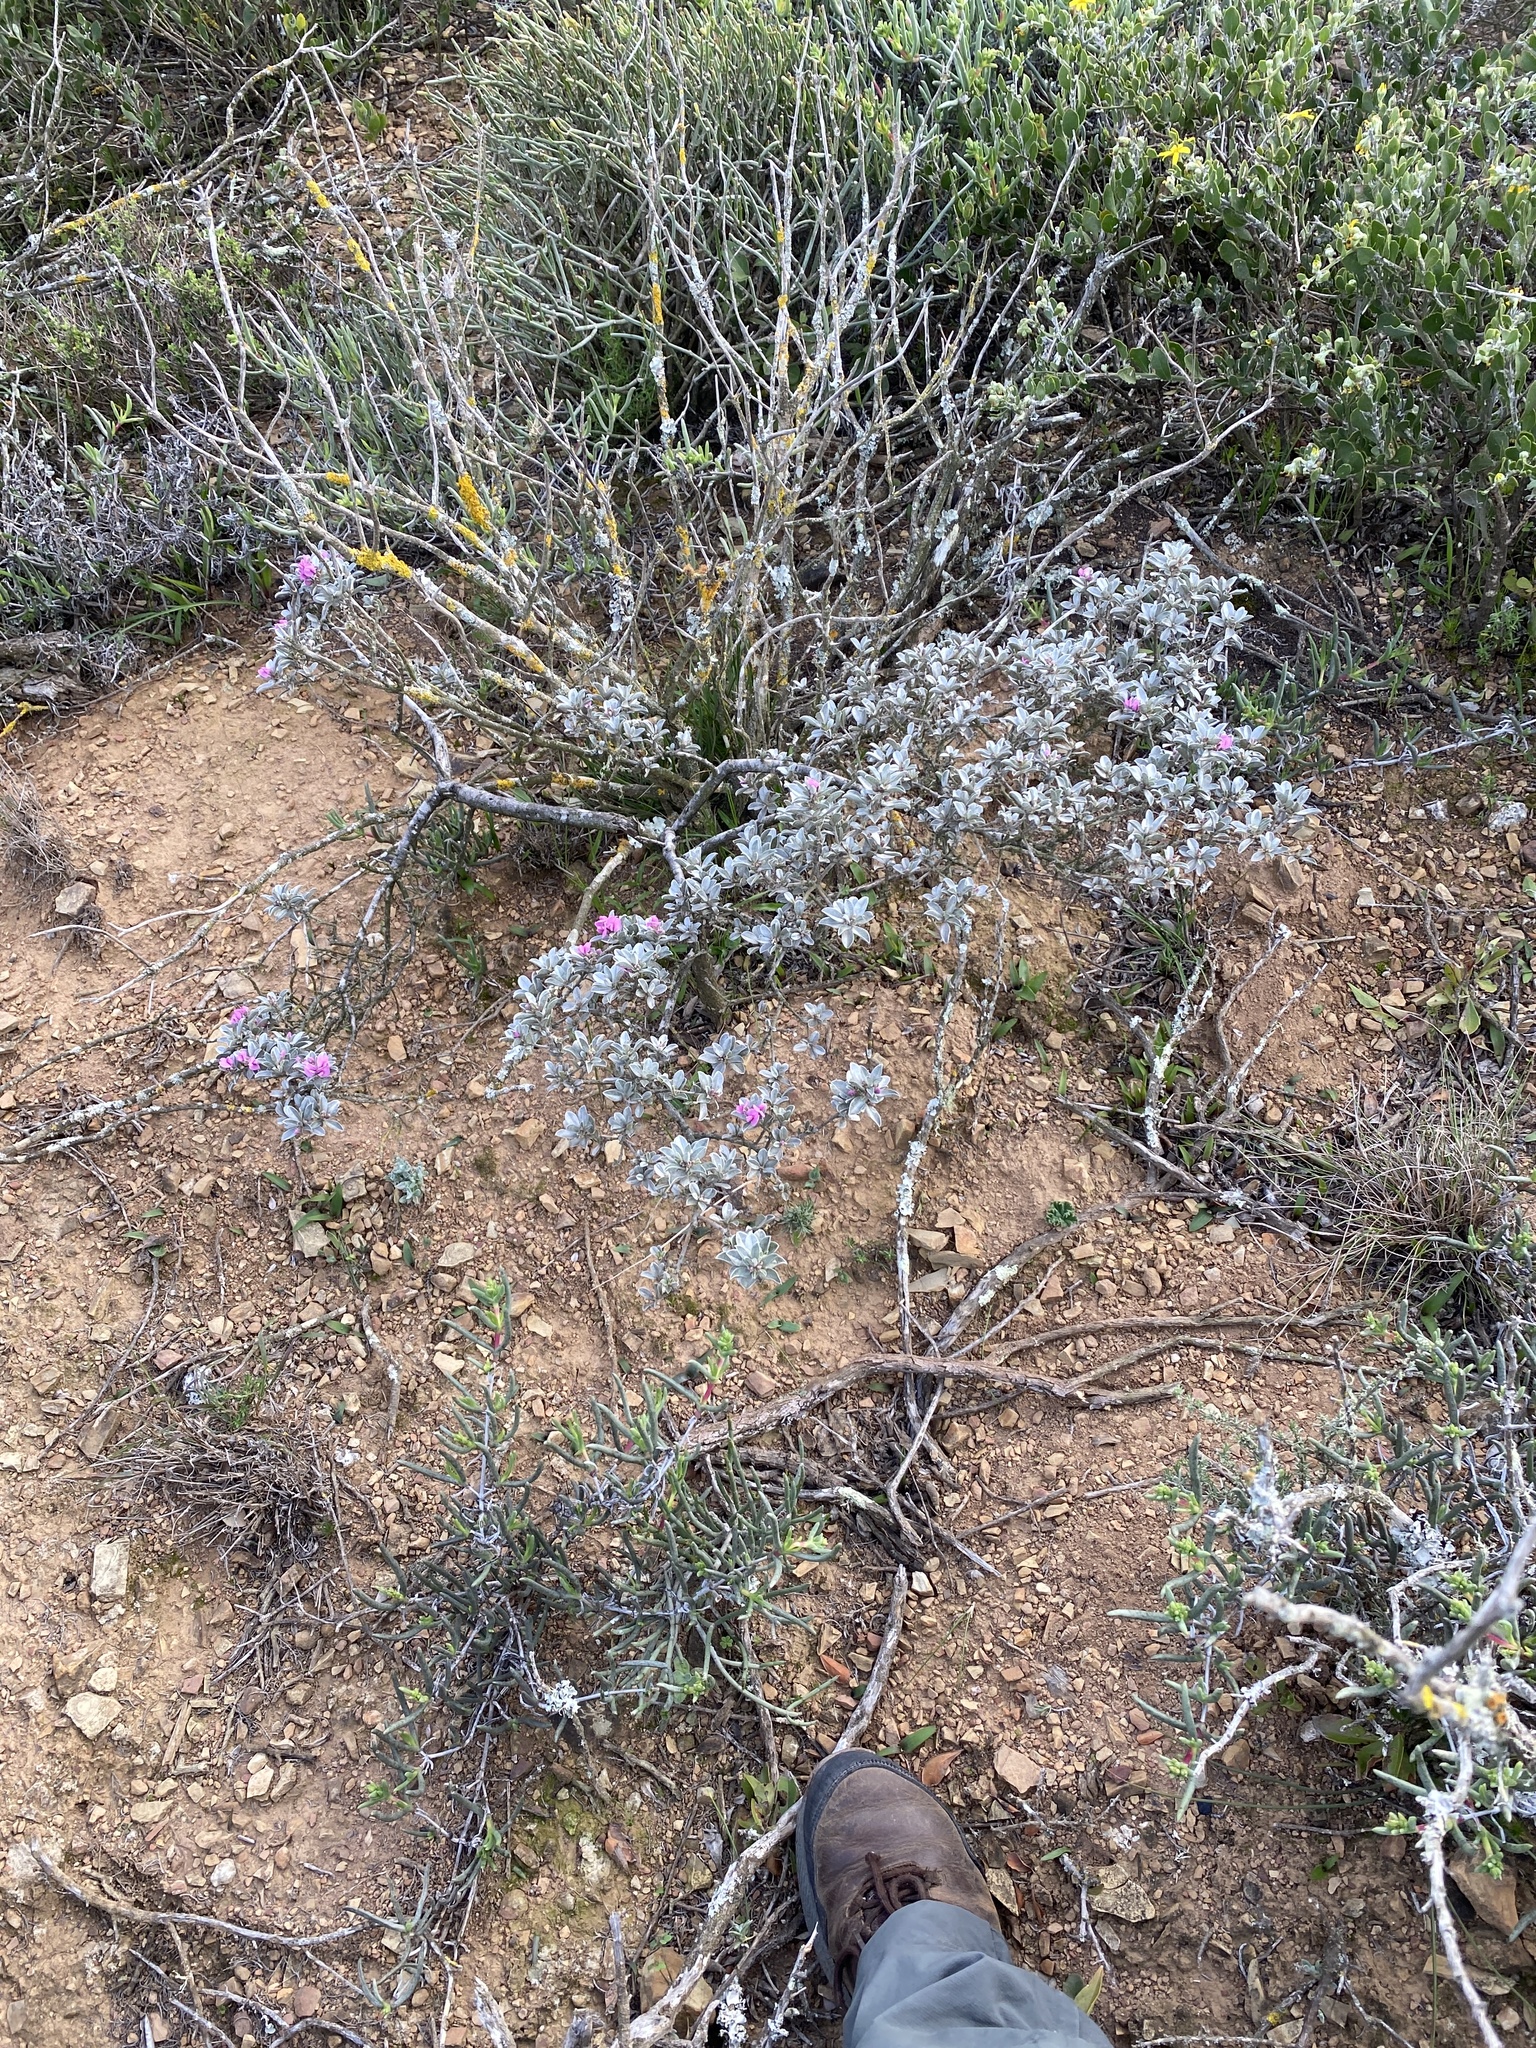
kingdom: Plantae
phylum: Tracheophyta
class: Magnoliopsida
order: Fabales
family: Fabaceae
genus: Podalyria
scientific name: Podalyria sericea
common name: Silver podalyria
